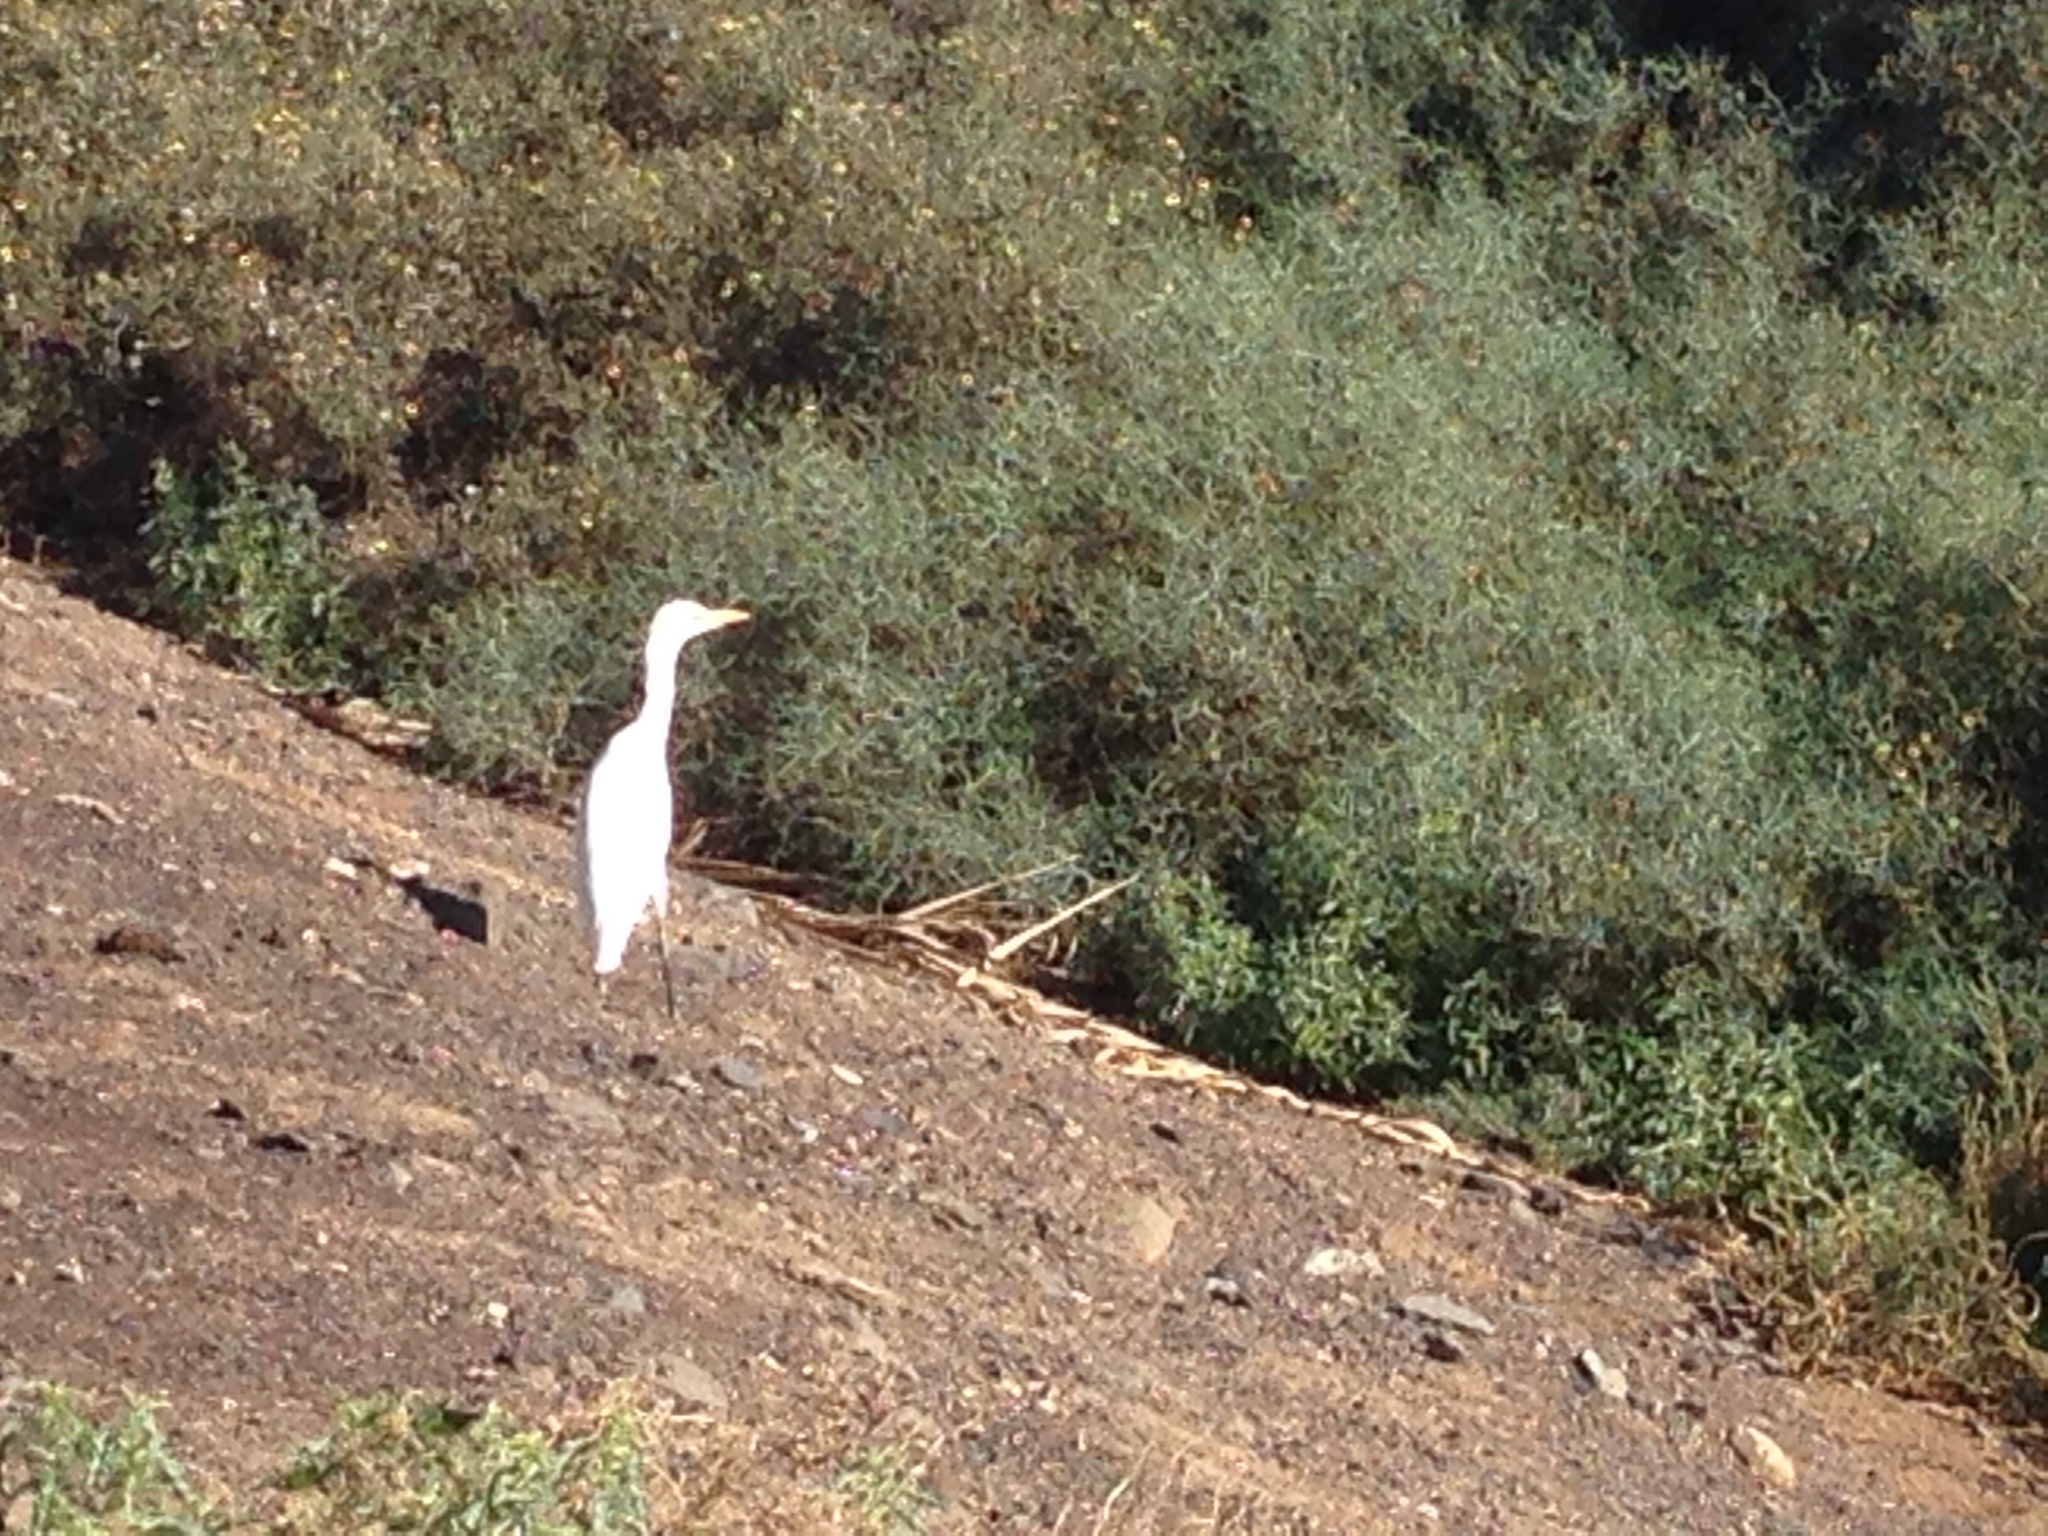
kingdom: Animalia
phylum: Chordata
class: Aves
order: Pelecaniformes
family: Ardeidae
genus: Bubulcus
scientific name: Bubulcus ibis
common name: Cattle egret
